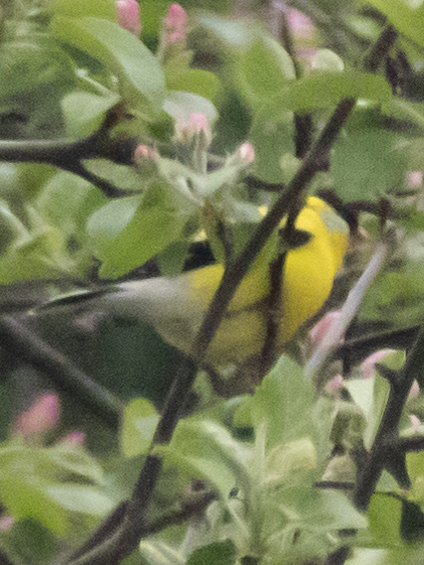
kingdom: Animalia
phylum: Chordata
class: Aves
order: Passeriformes
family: Fringillidae
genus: Spinus
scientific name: Spinus tristis
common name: American goldfinch
